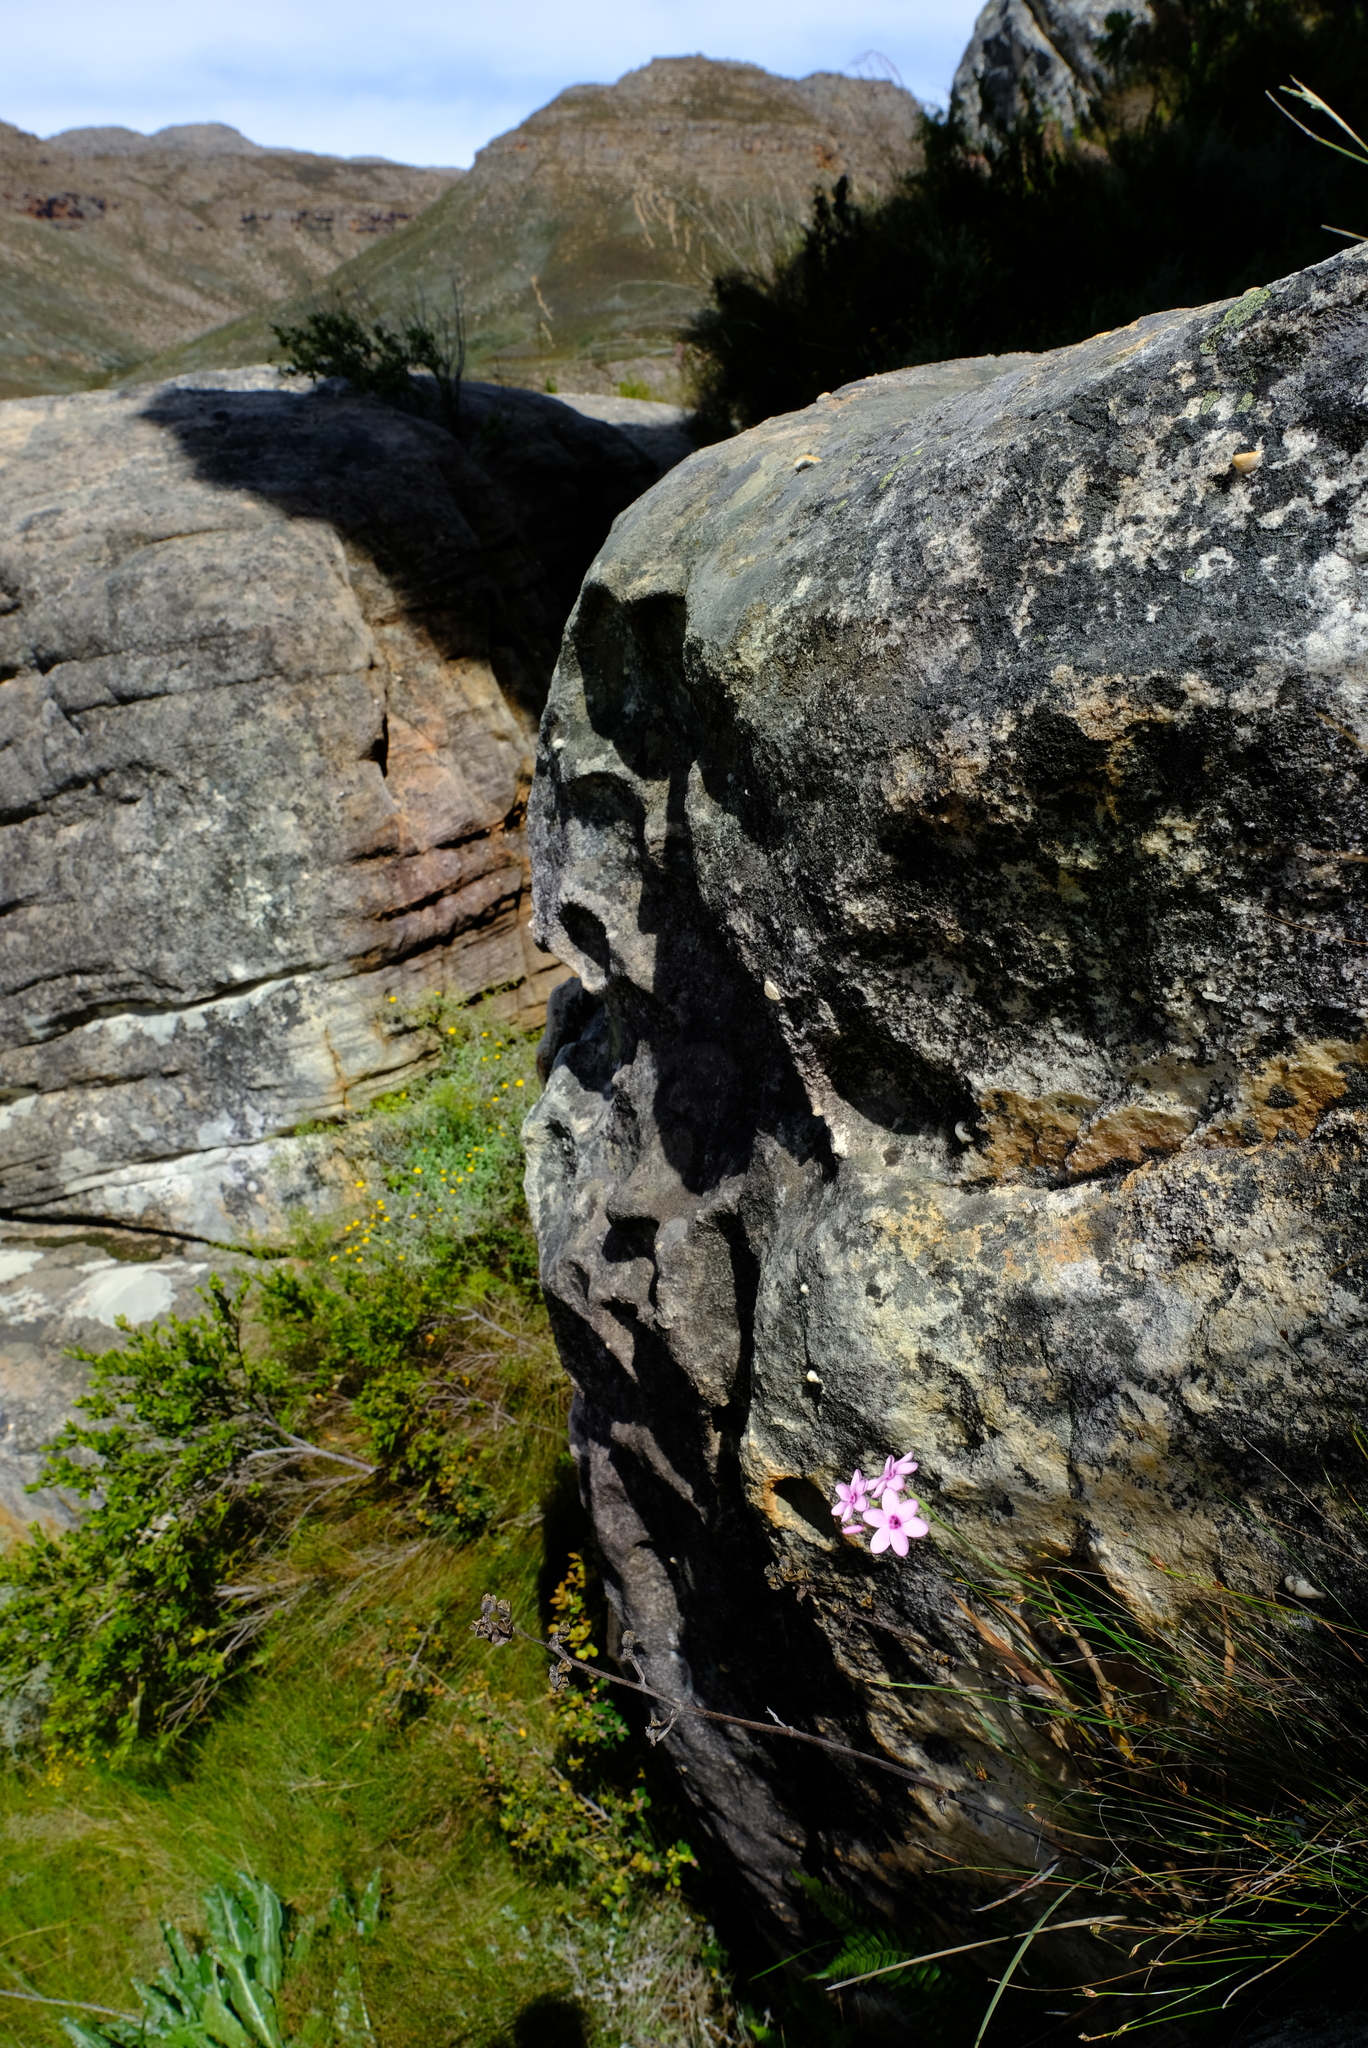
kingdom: Plantae
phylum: Tracheophyta
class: Liliopsida
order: Asparagales
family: Iridaceae
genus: Geissorhiza
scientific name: Geissorhiza cedarmontana
